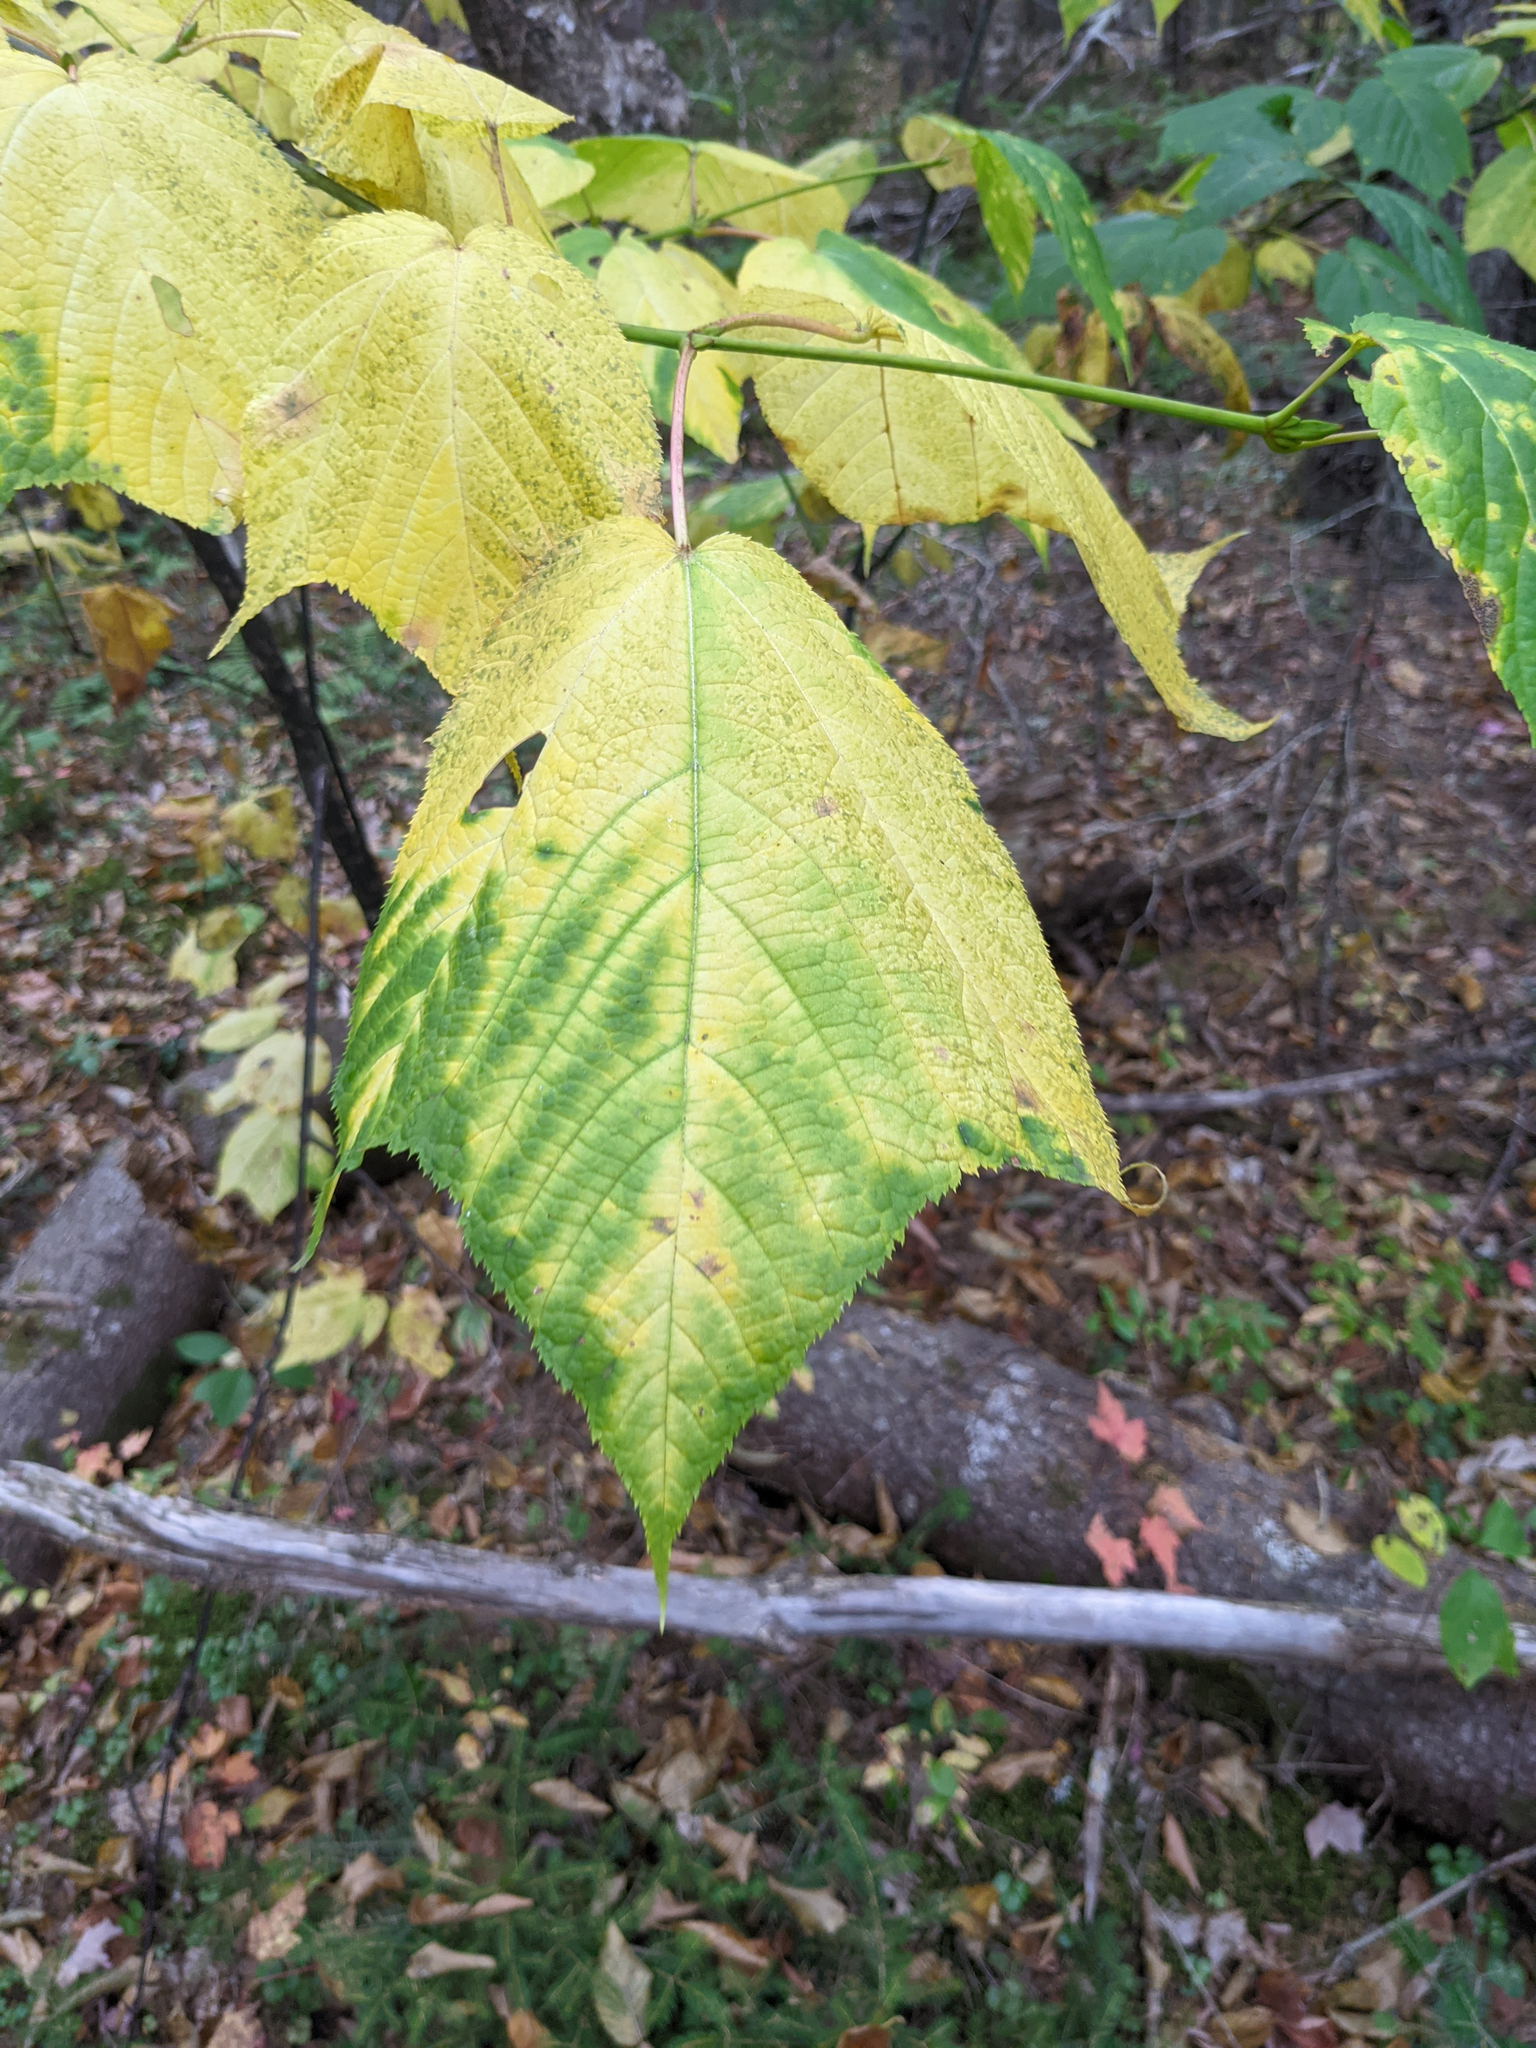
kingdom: Plantae
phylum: Tracheophyta
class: Magnoliopsida
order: Sapindales
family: Sapindaceae
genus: Acer
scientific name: Acer pensylvanicum
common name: Moosewood
